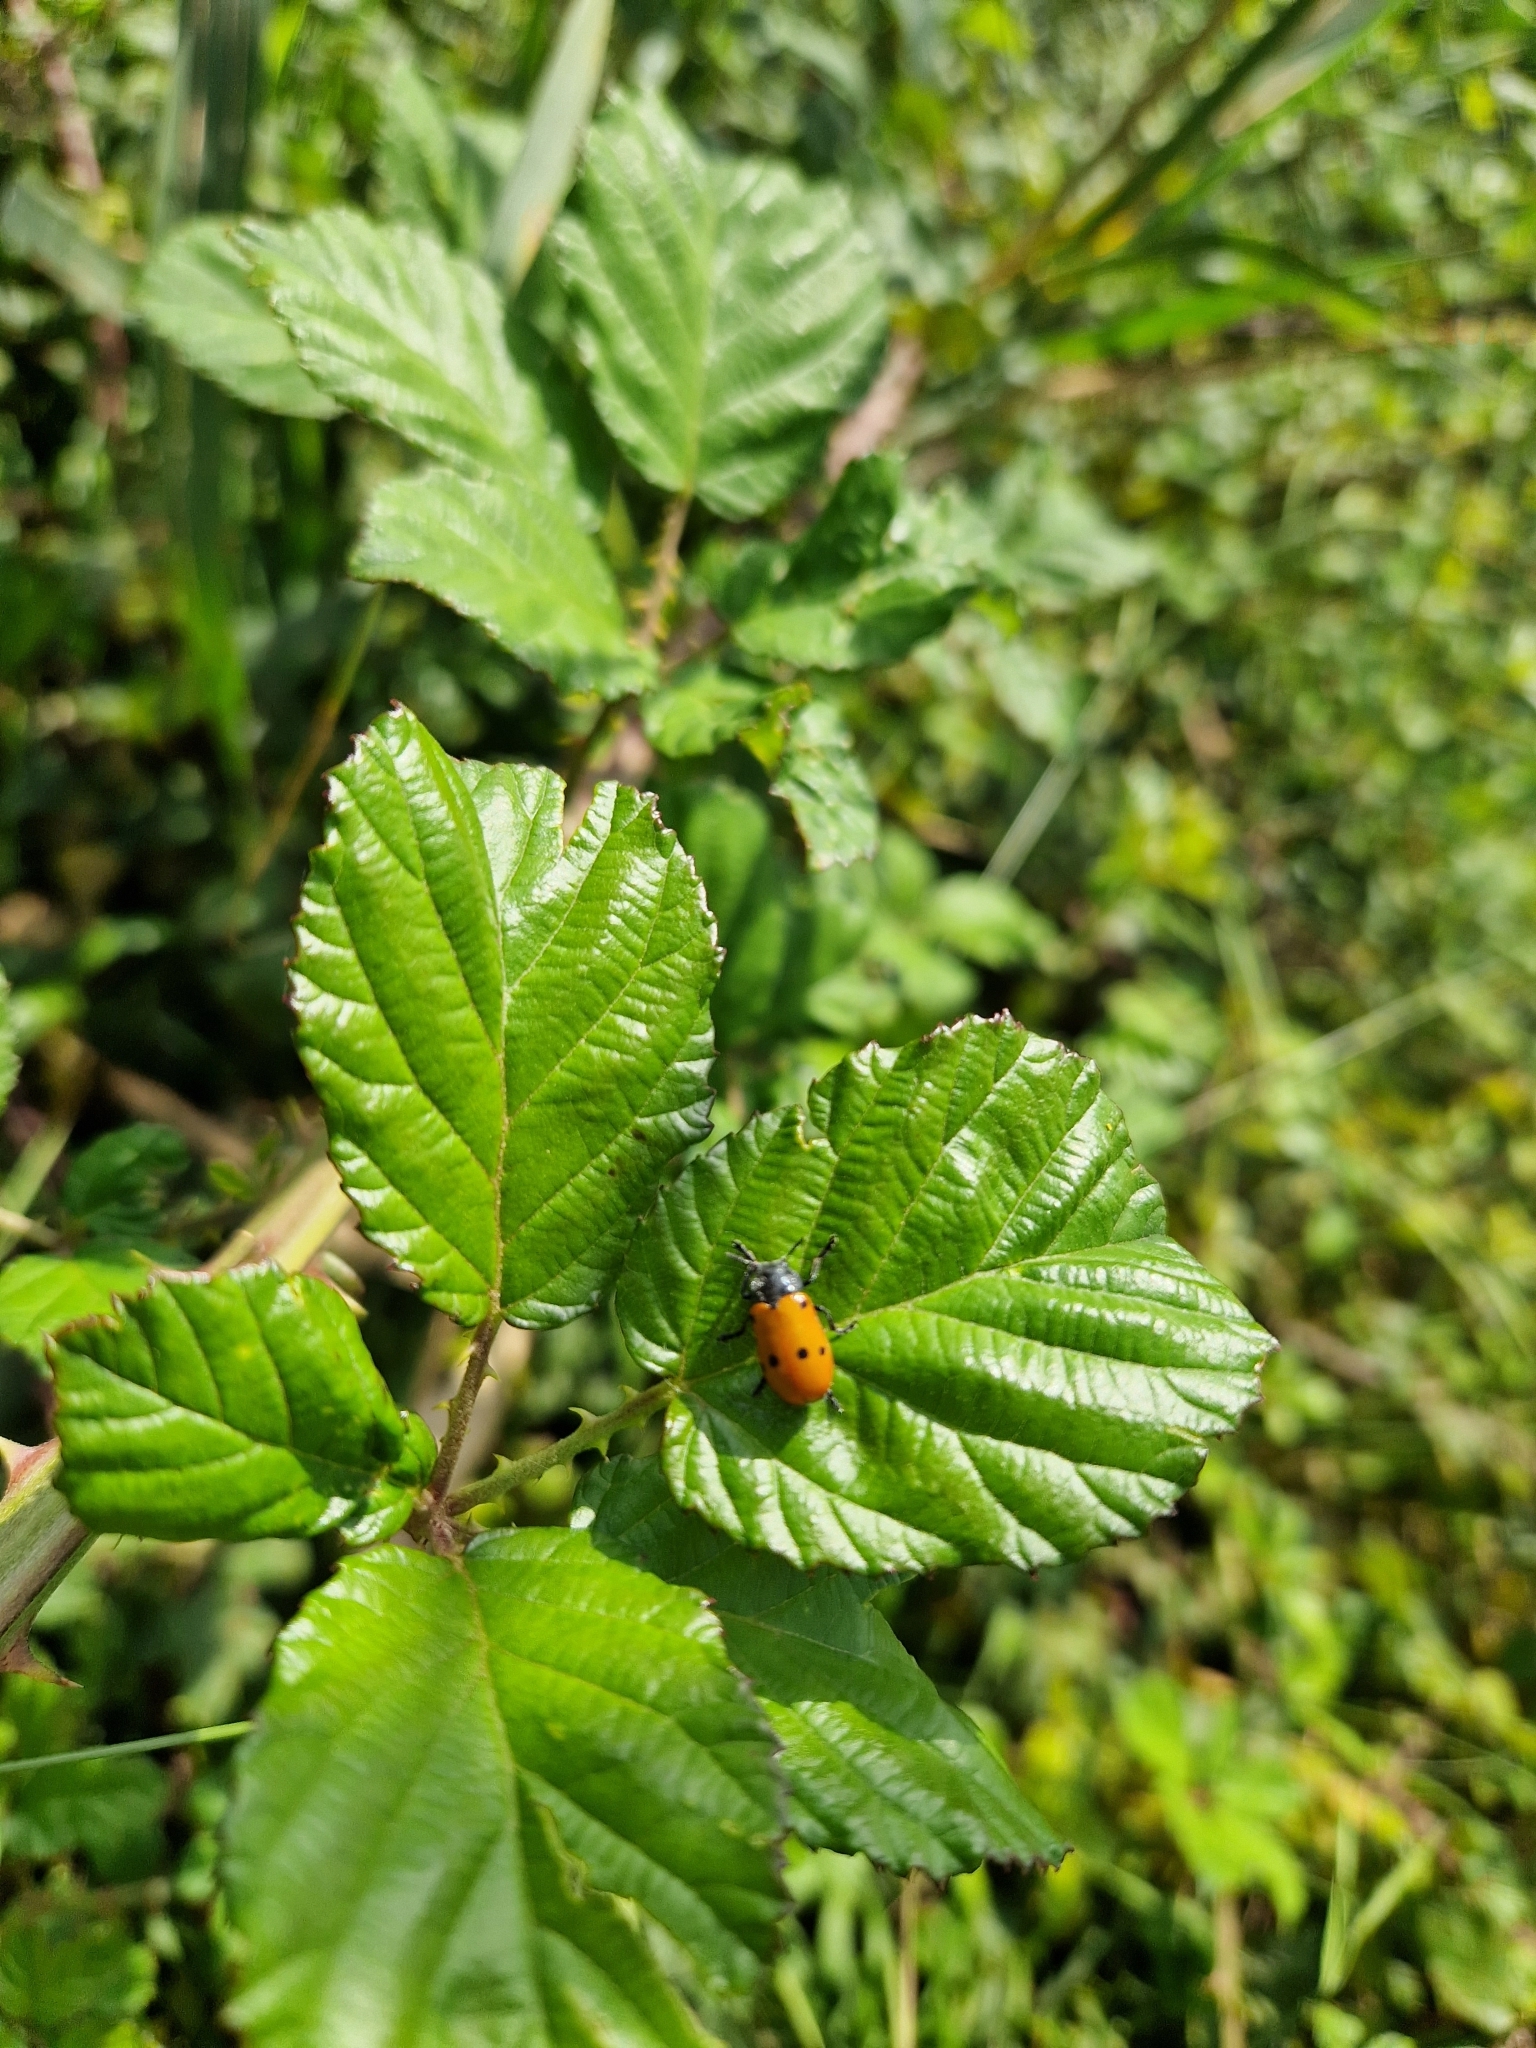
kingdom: Animalia
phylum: Arthropoda
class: Insecta
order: Coleoptera
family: Chrysomelidae
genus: Lachnaia
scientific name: Lachnaia paradoxa
